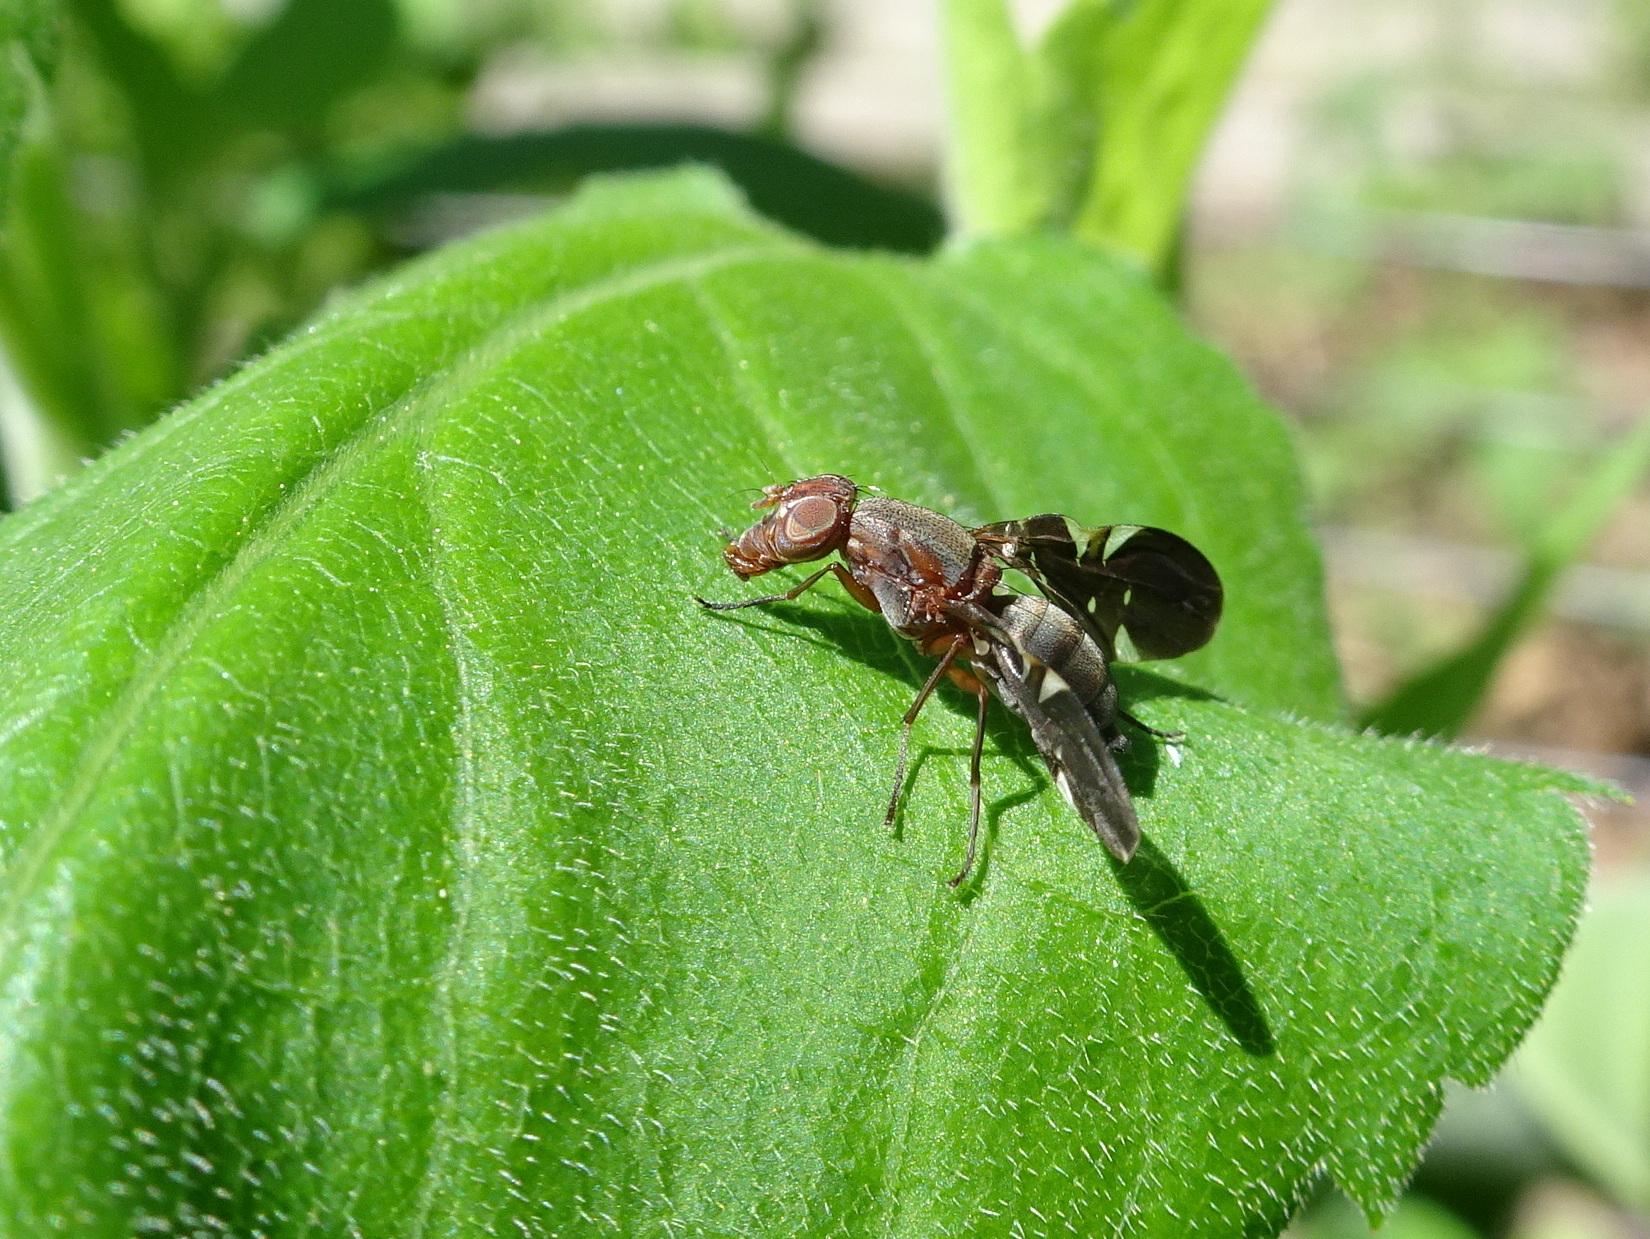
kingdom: Animalia
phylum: Arthropoda
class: Insecta
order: Diptera
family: Ulidiidae
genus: Delphinia
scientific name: Delphinia picta
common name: Common picture-winged fly
